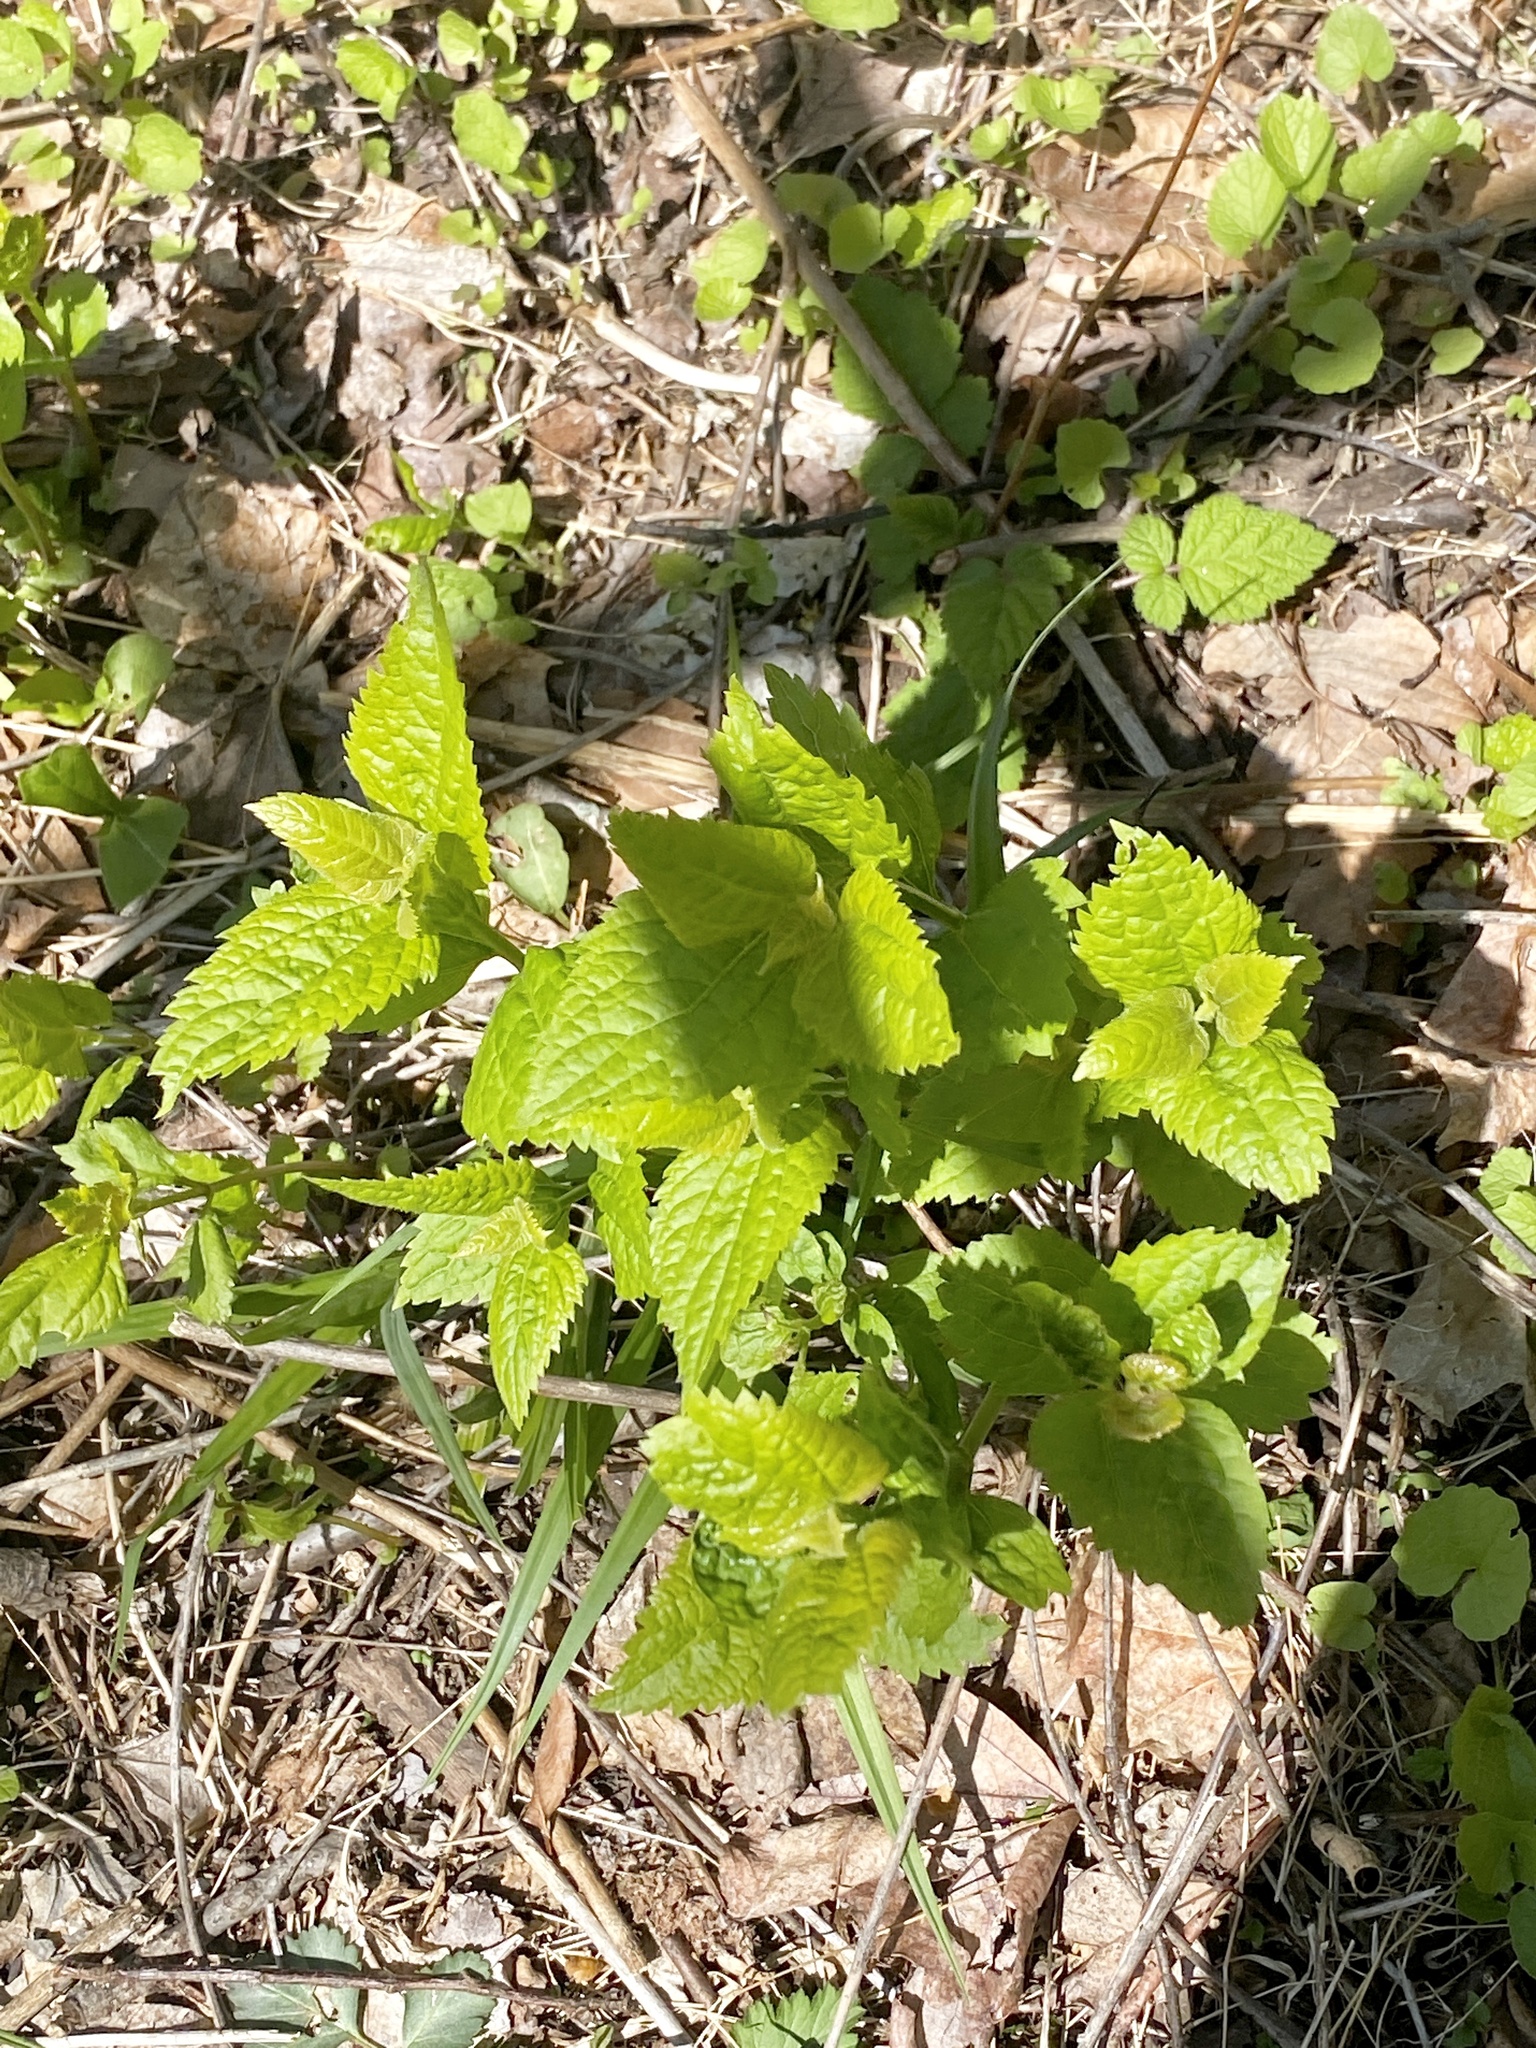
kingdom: Plantae
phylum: Tracheophyta
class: Magnoliopsida
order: Asterales
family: Asteraceae
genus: Ageratina
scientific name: Ageratina altissima
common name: White snakeroot
